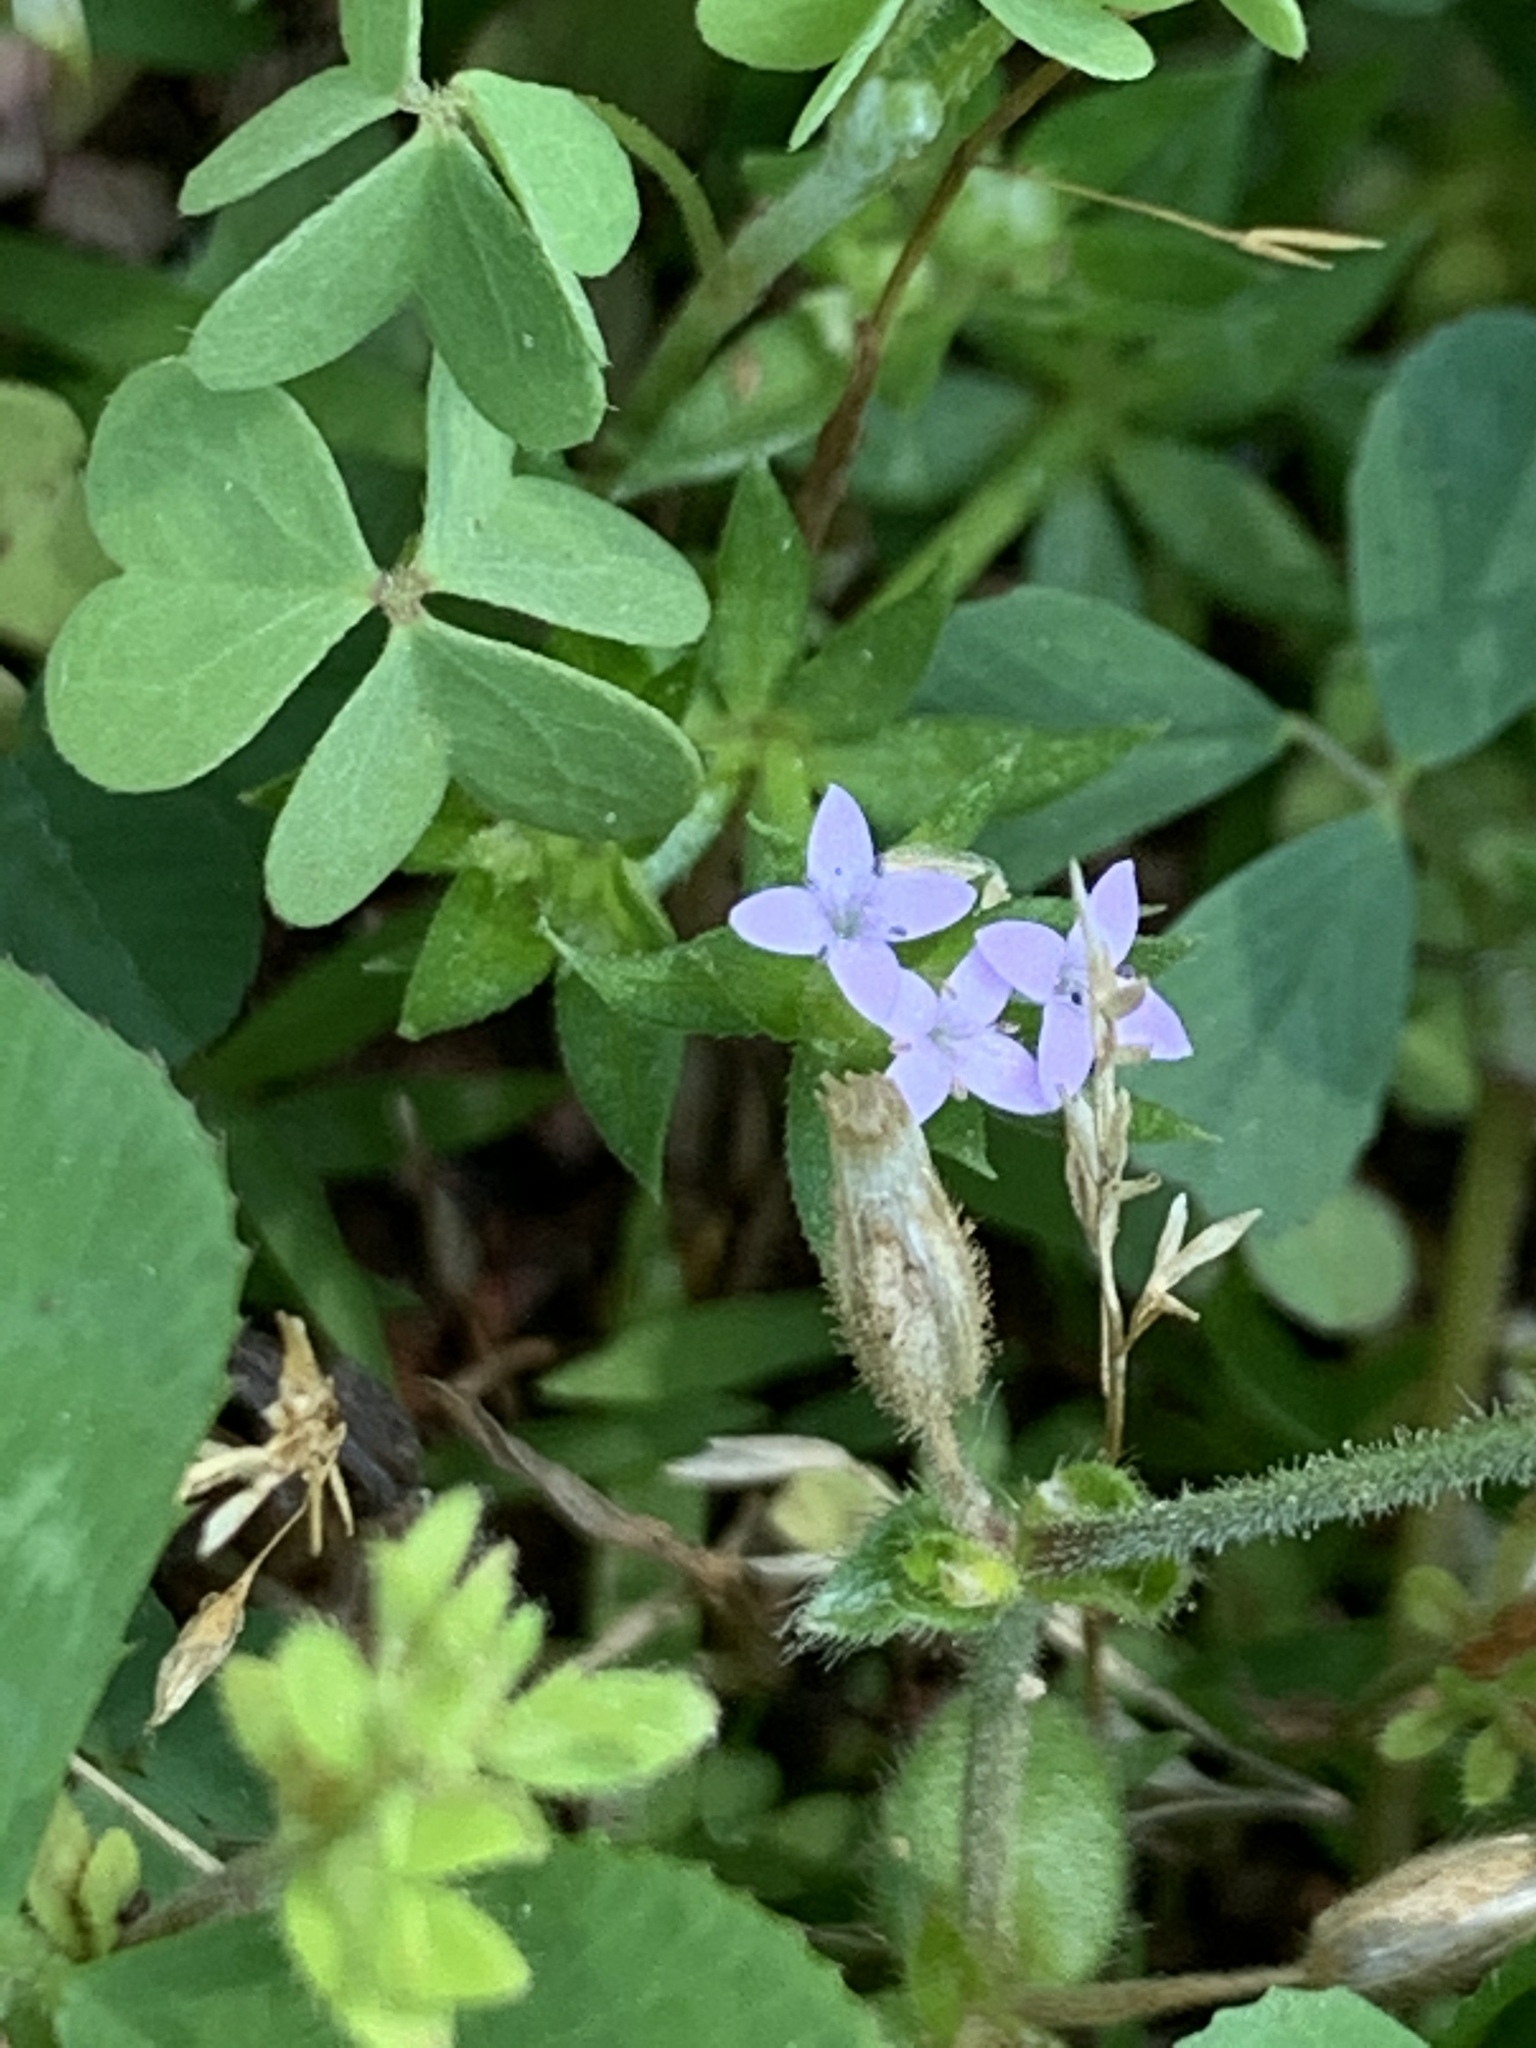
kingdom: Plantae
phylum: Tracheophyta
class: Magnoliopsida
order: Gentianales
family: Rubiaceae
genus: Sherardia
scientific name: Sherardia arvensis
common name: Field madder
